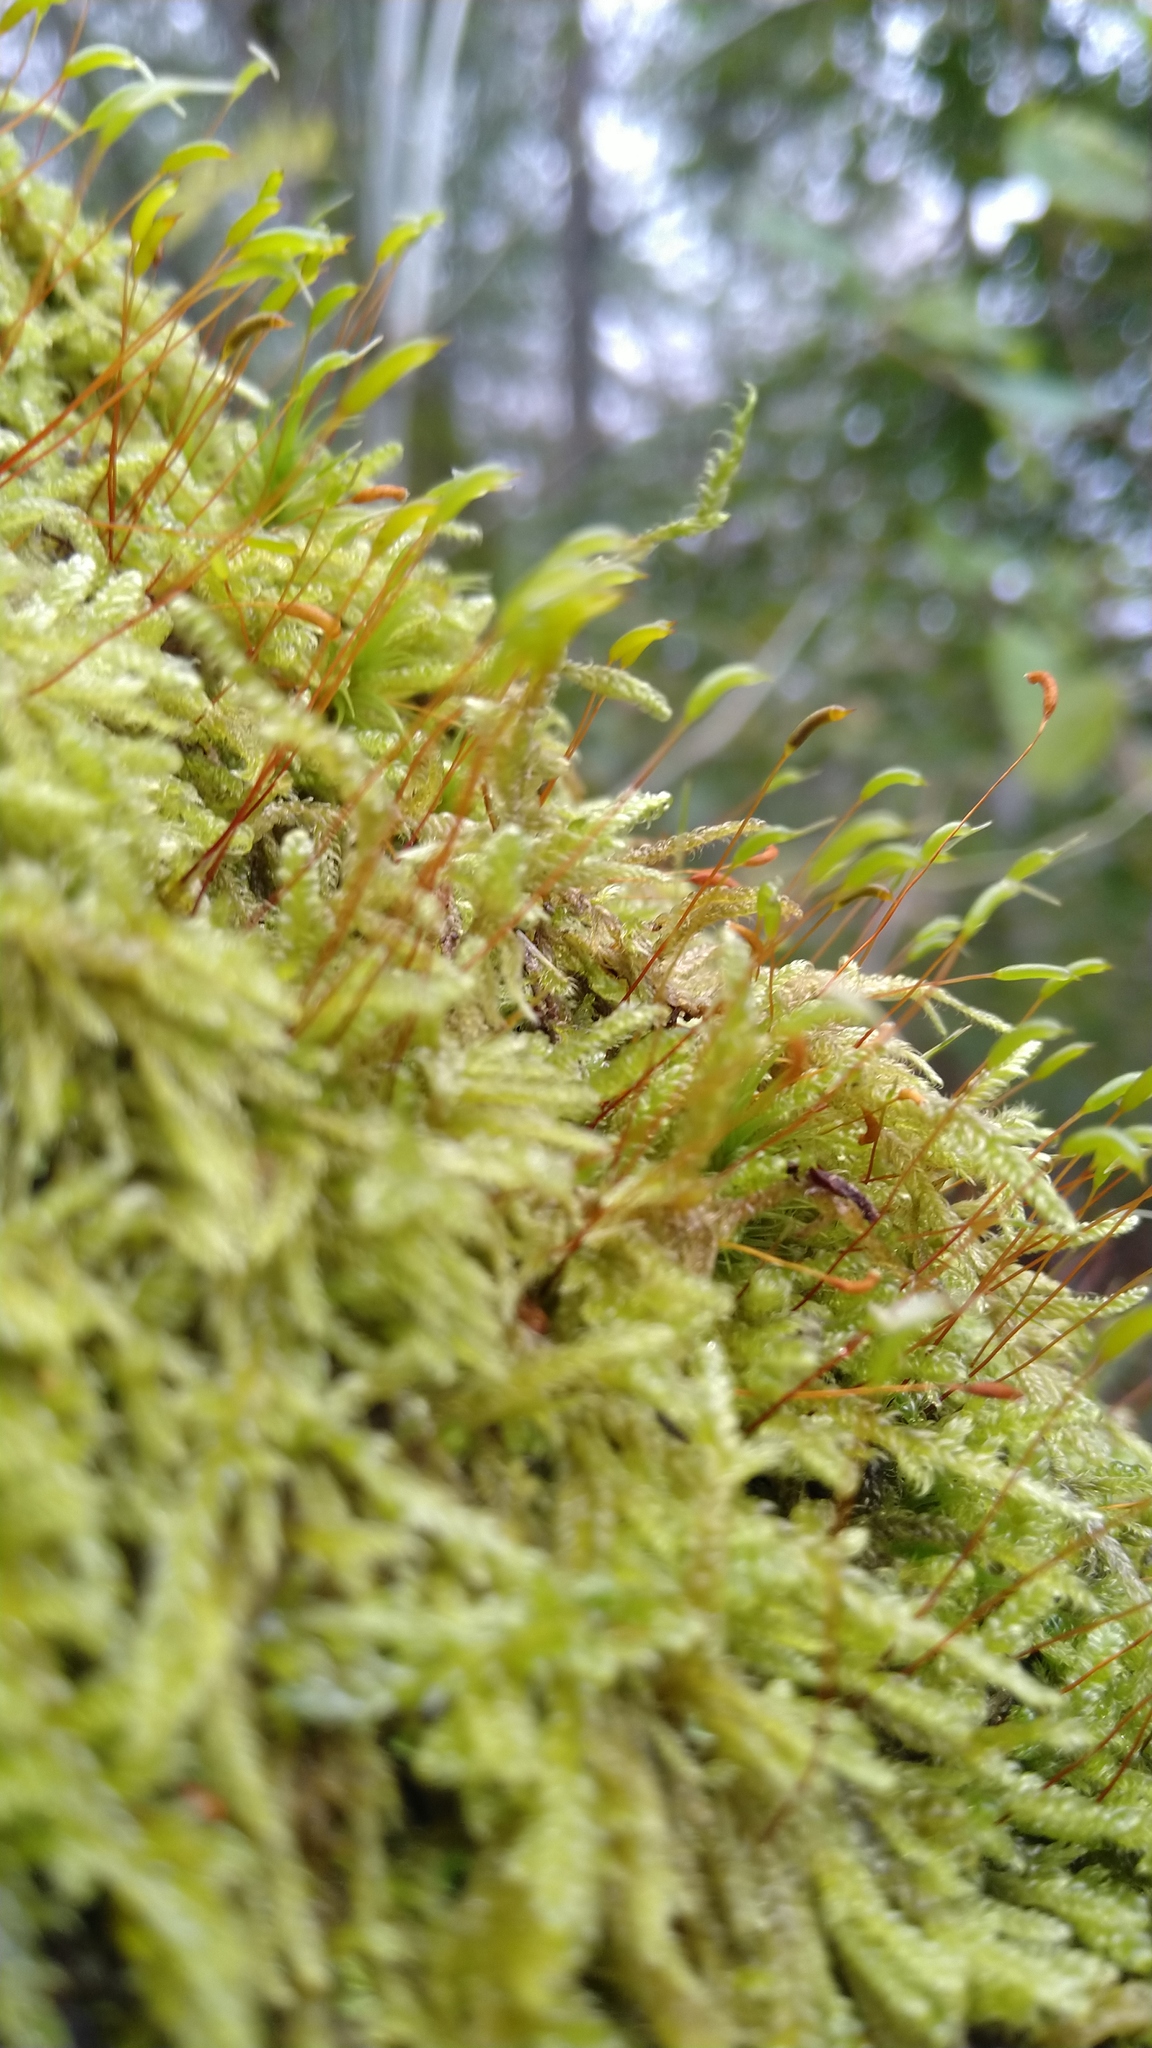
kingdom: Plantae
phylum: Bryophyta
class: Bryopsida
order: Hypnales
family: Hypnaceae
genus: Hypnum
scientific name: Hypnum cupressiforme
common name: Cypress-leaved plait-moss
